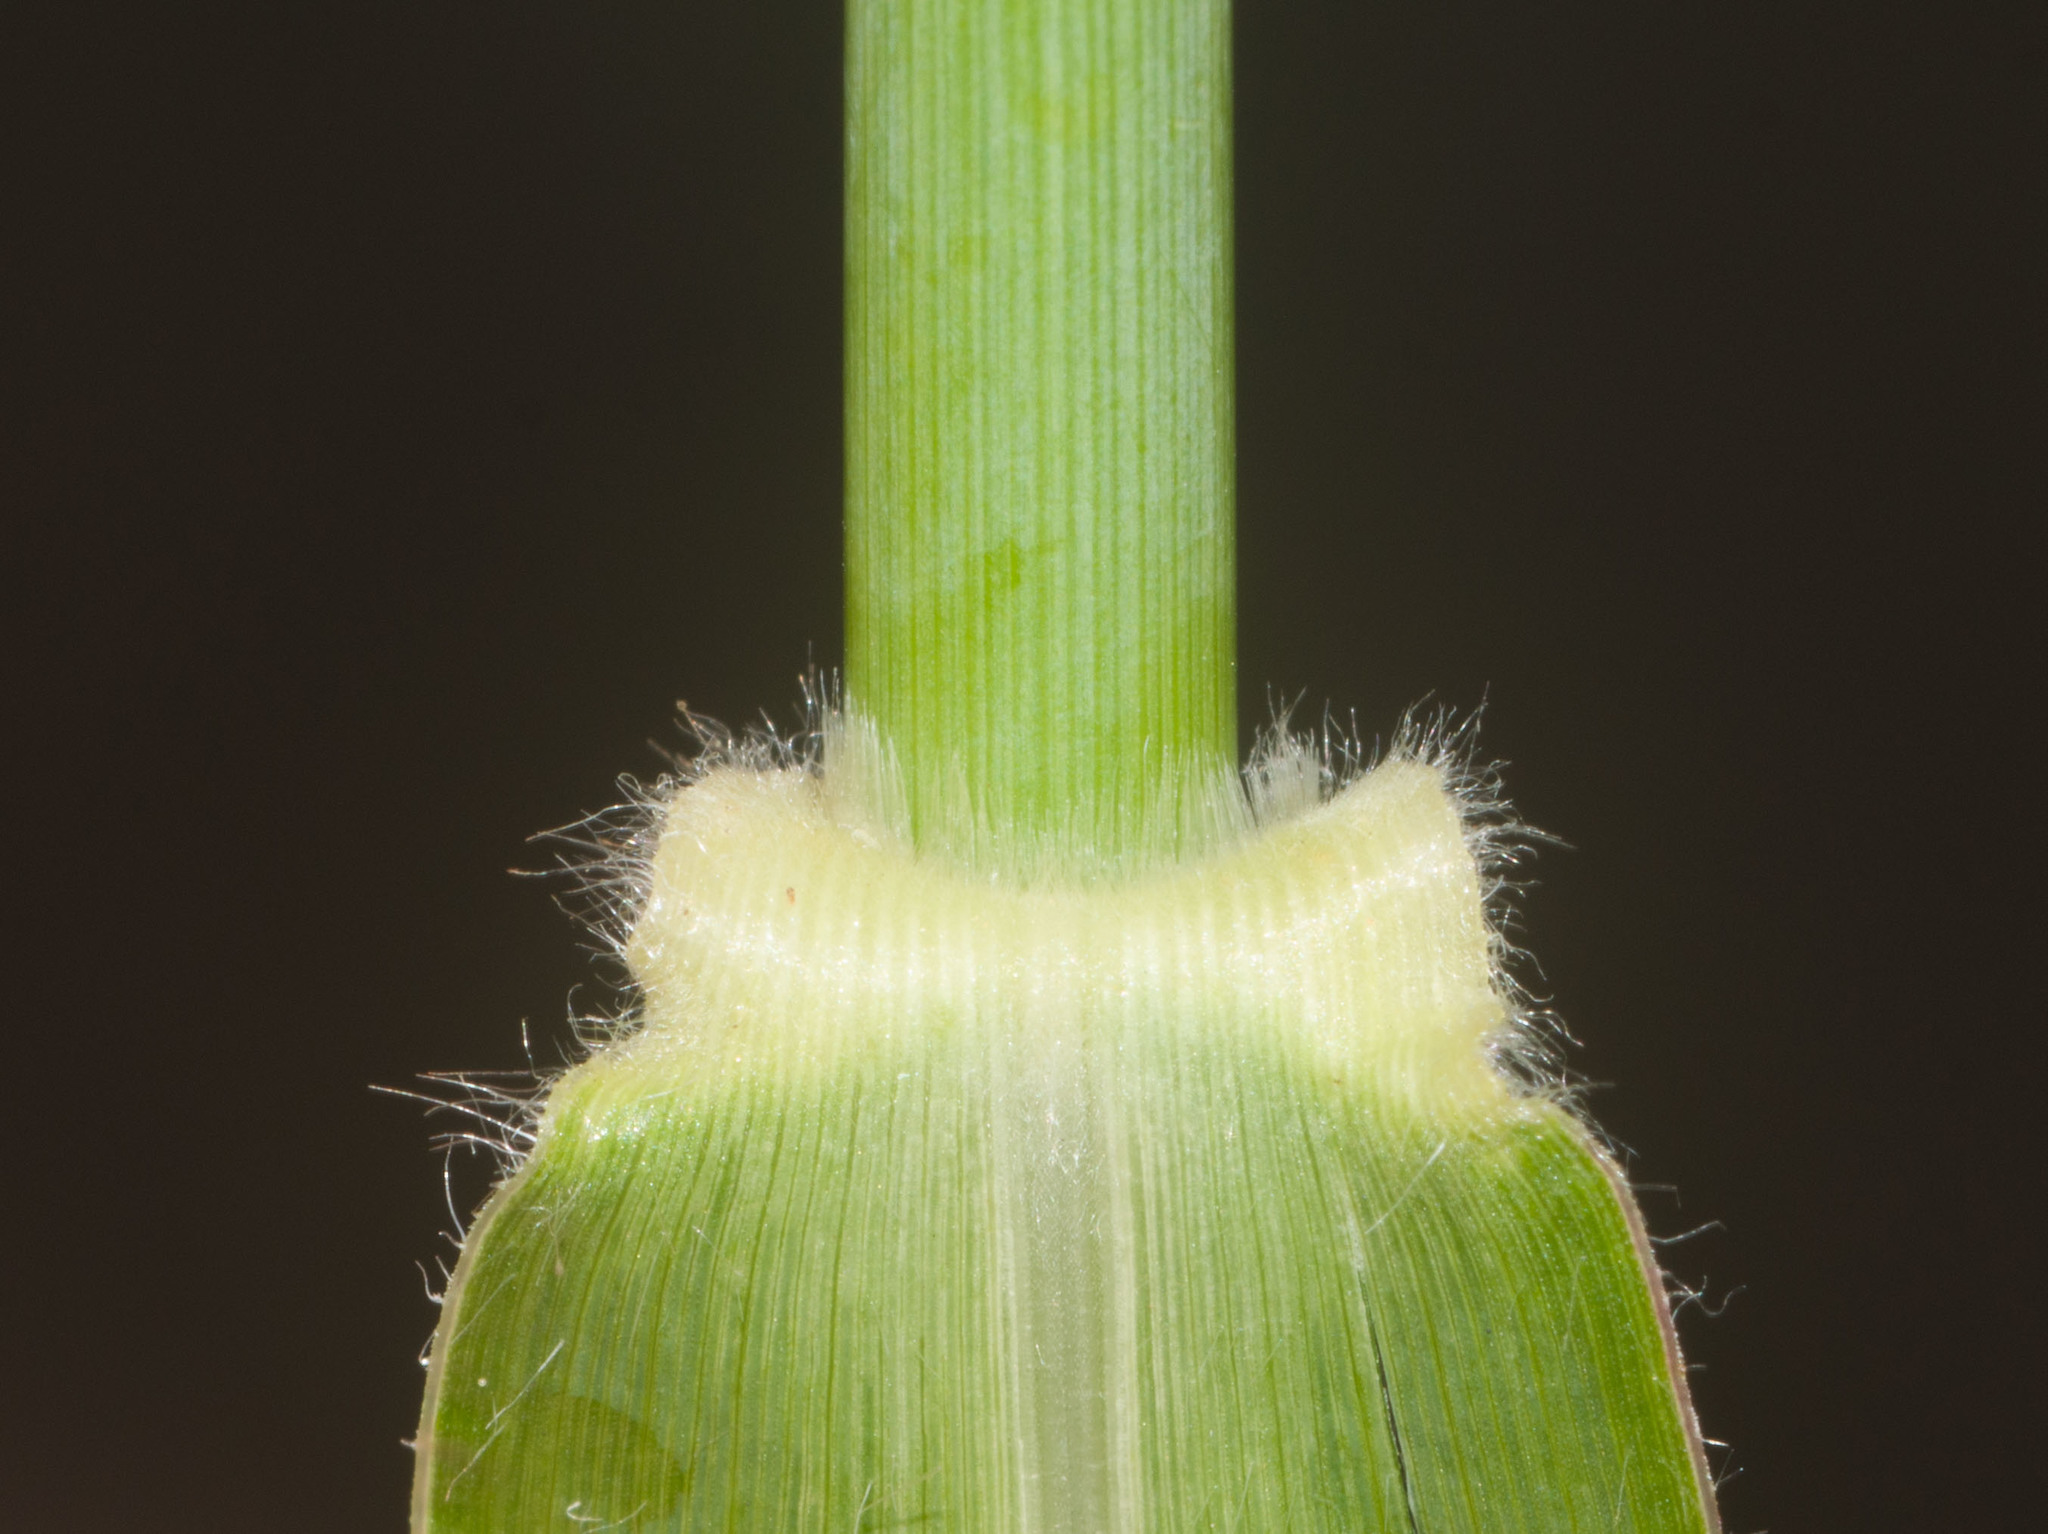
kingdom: Plantae
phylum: Tracheophyta
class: Liliopsida
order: Poales
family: Poaceae
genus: Urochloa
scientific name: Urochloa mutica
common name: Para grass
